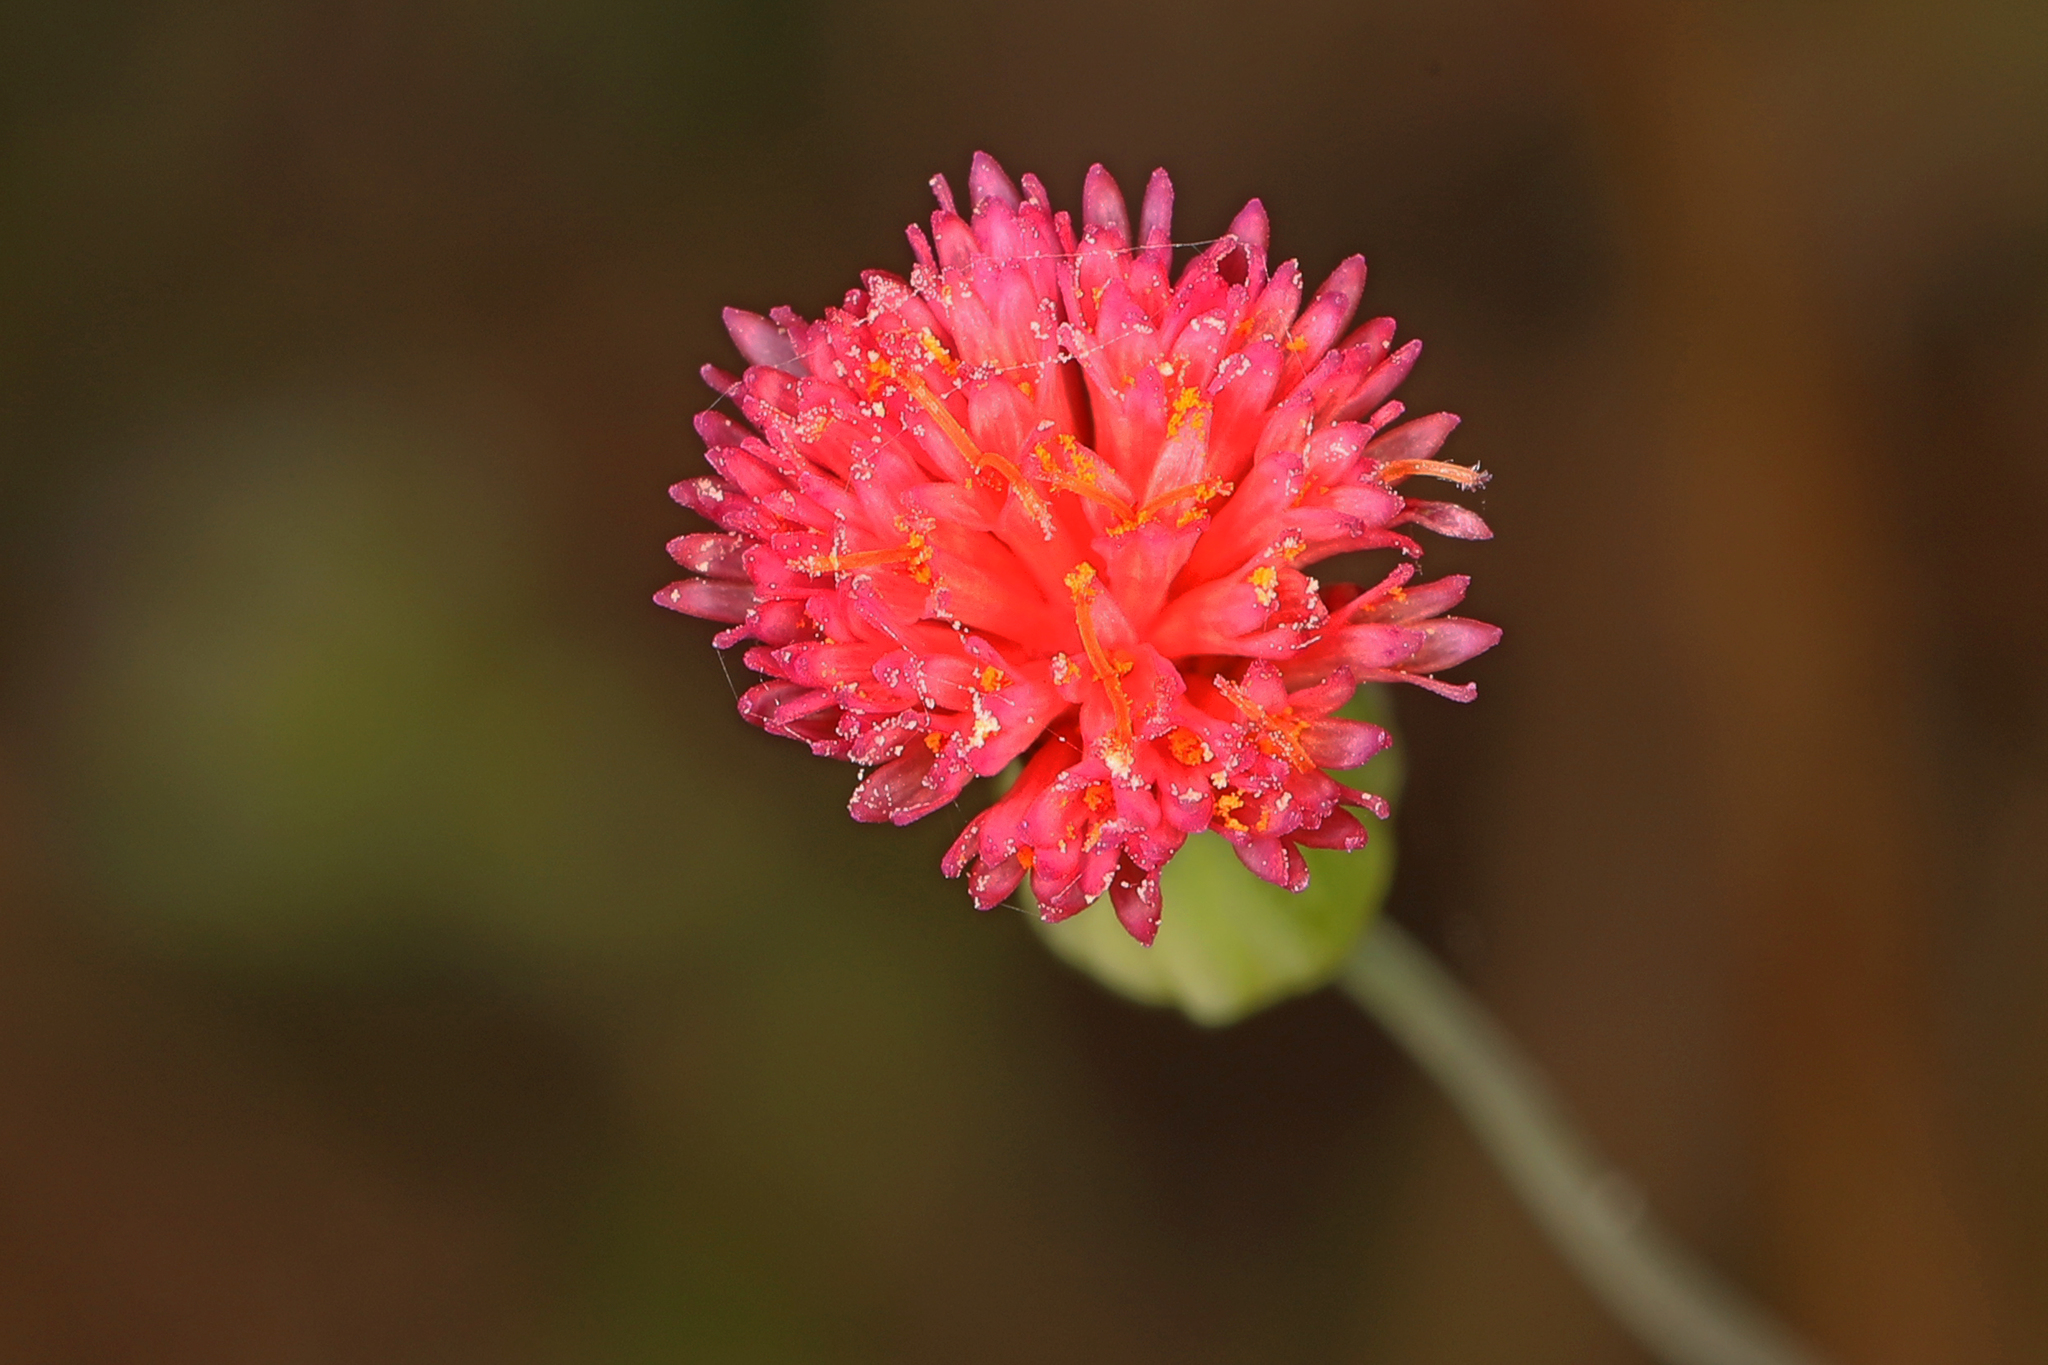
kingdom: Plantae
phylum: Tracheophyta
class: Magnoliopsida
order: Asterales
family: Asteraceae
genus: Emilia
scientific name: Emilia fosbergii
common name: Florida tasselflower
